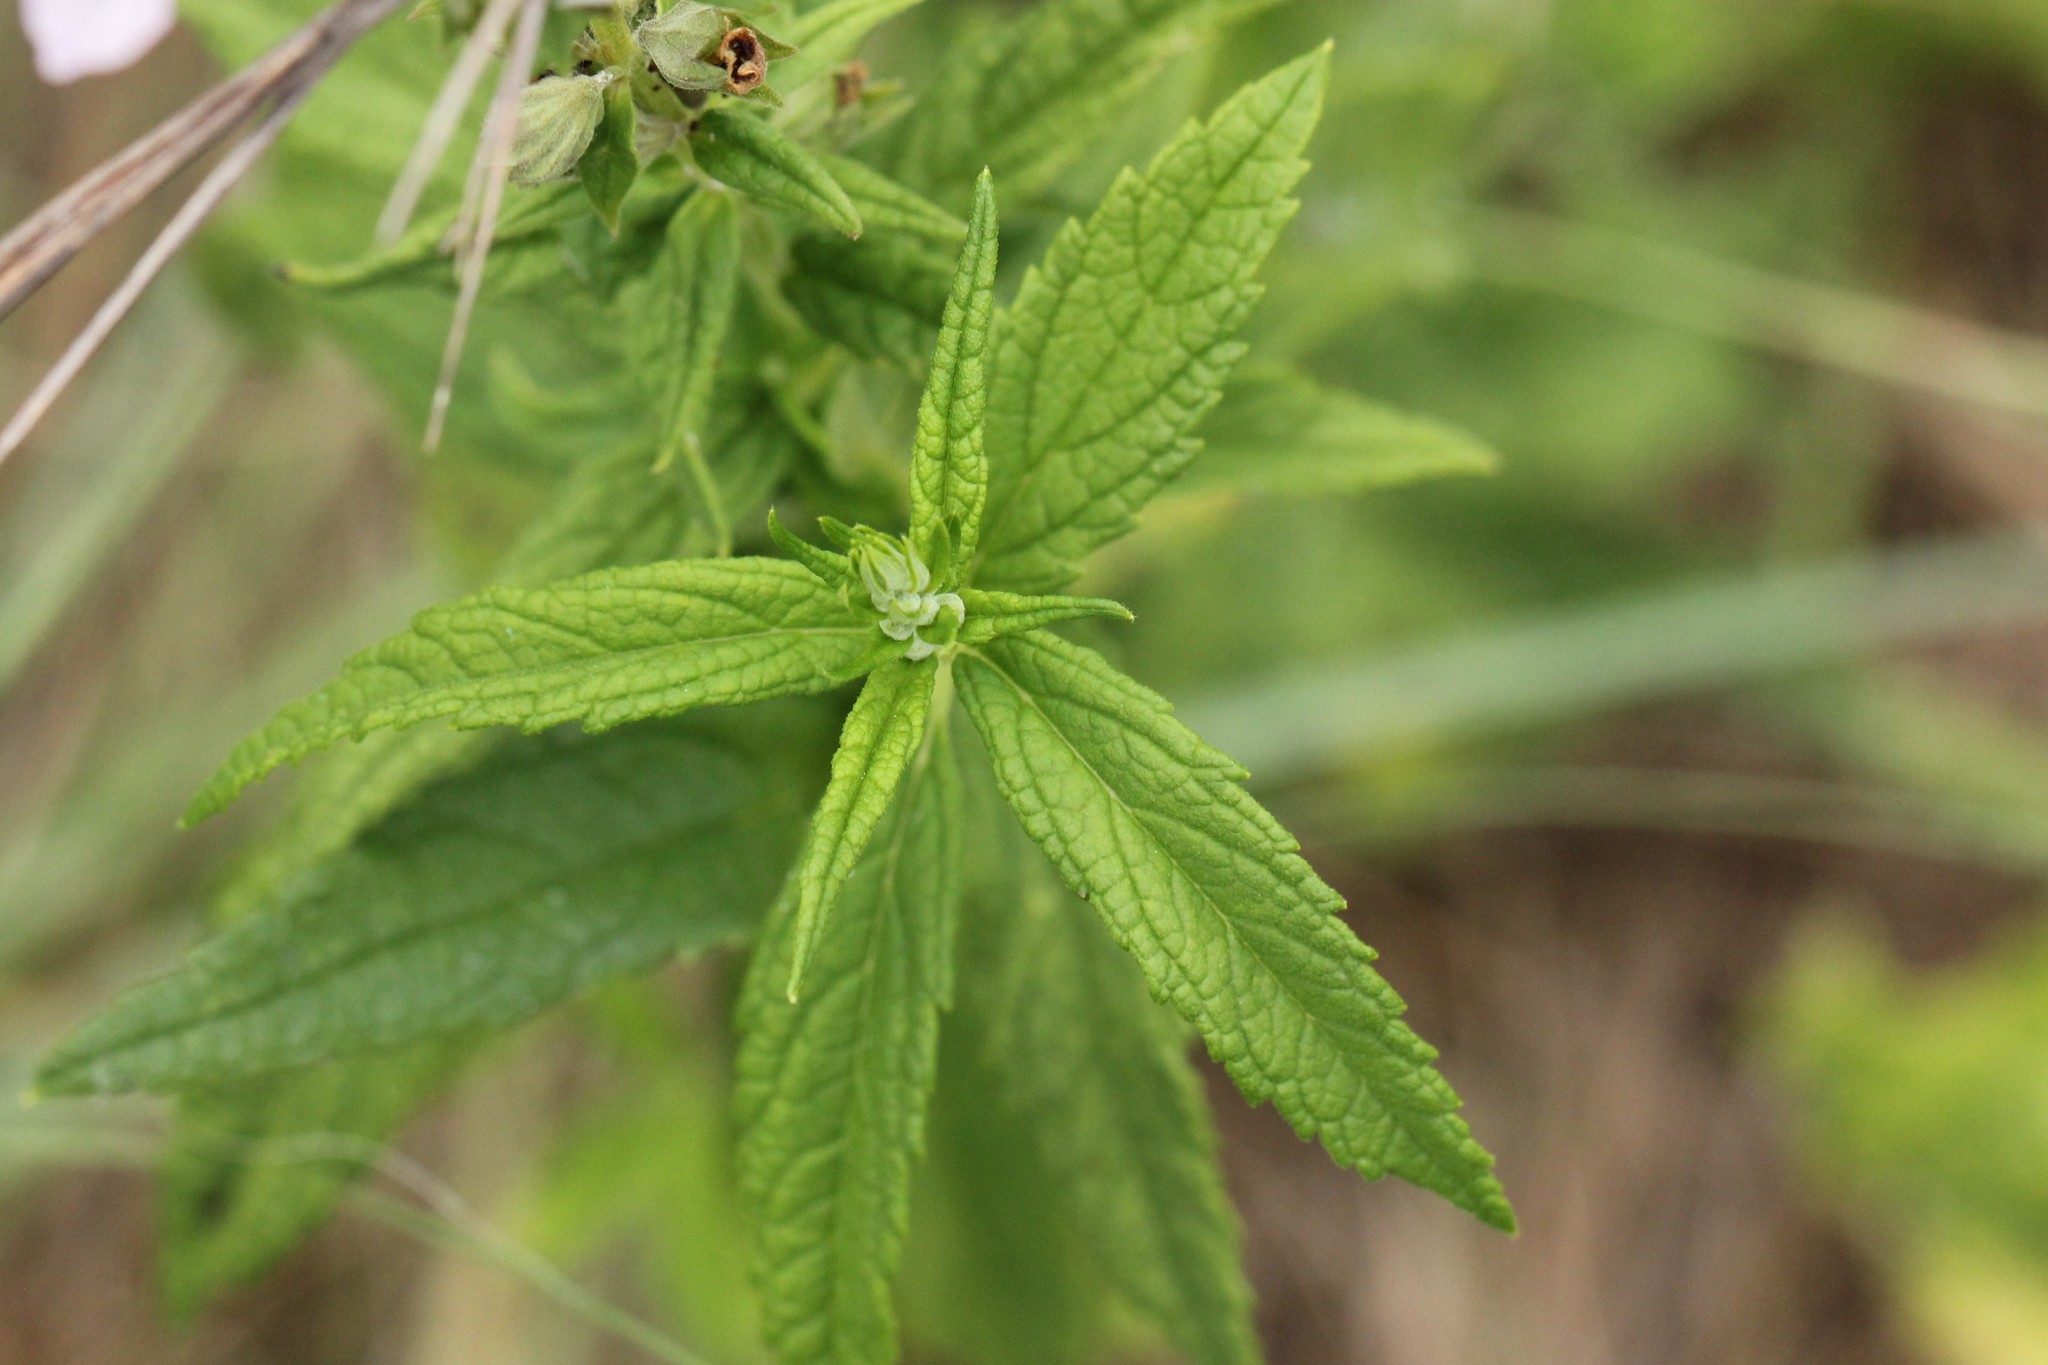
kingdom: Plantae
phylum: Tracheophyta
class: Magnoliopsida
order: Lamiales
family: Lamiaceae
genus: Teucrium
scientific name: Teucrium canadense
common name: American germander
